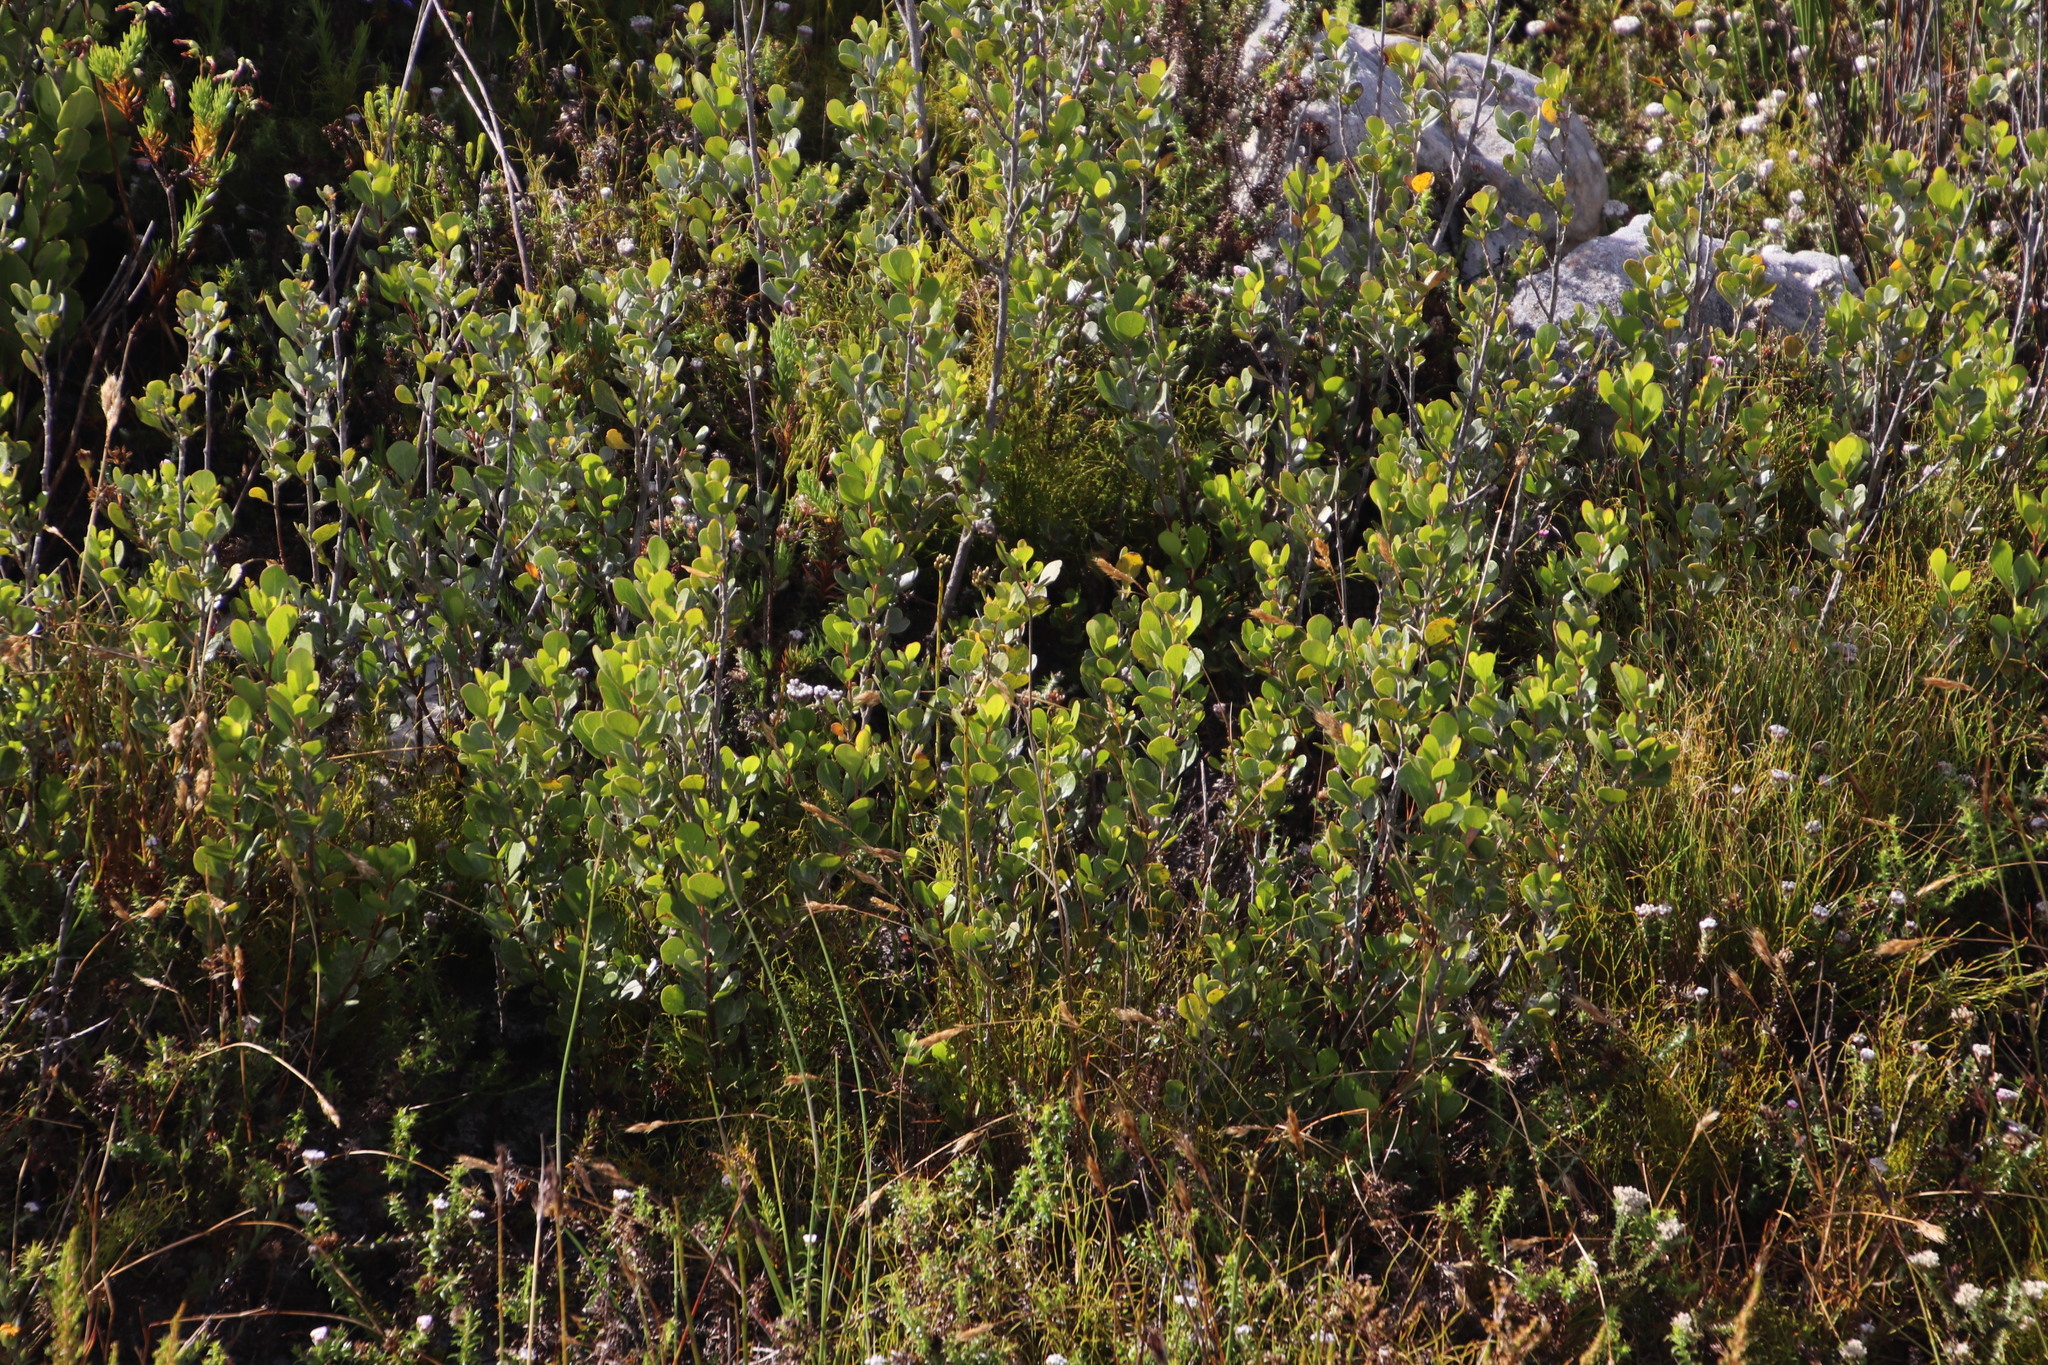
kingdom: Plantae
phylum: Tracheophyta
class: Magnoliopsida
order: Sapindales
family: Anacardiaceae
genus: Searsia
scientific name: Searsia lucida
